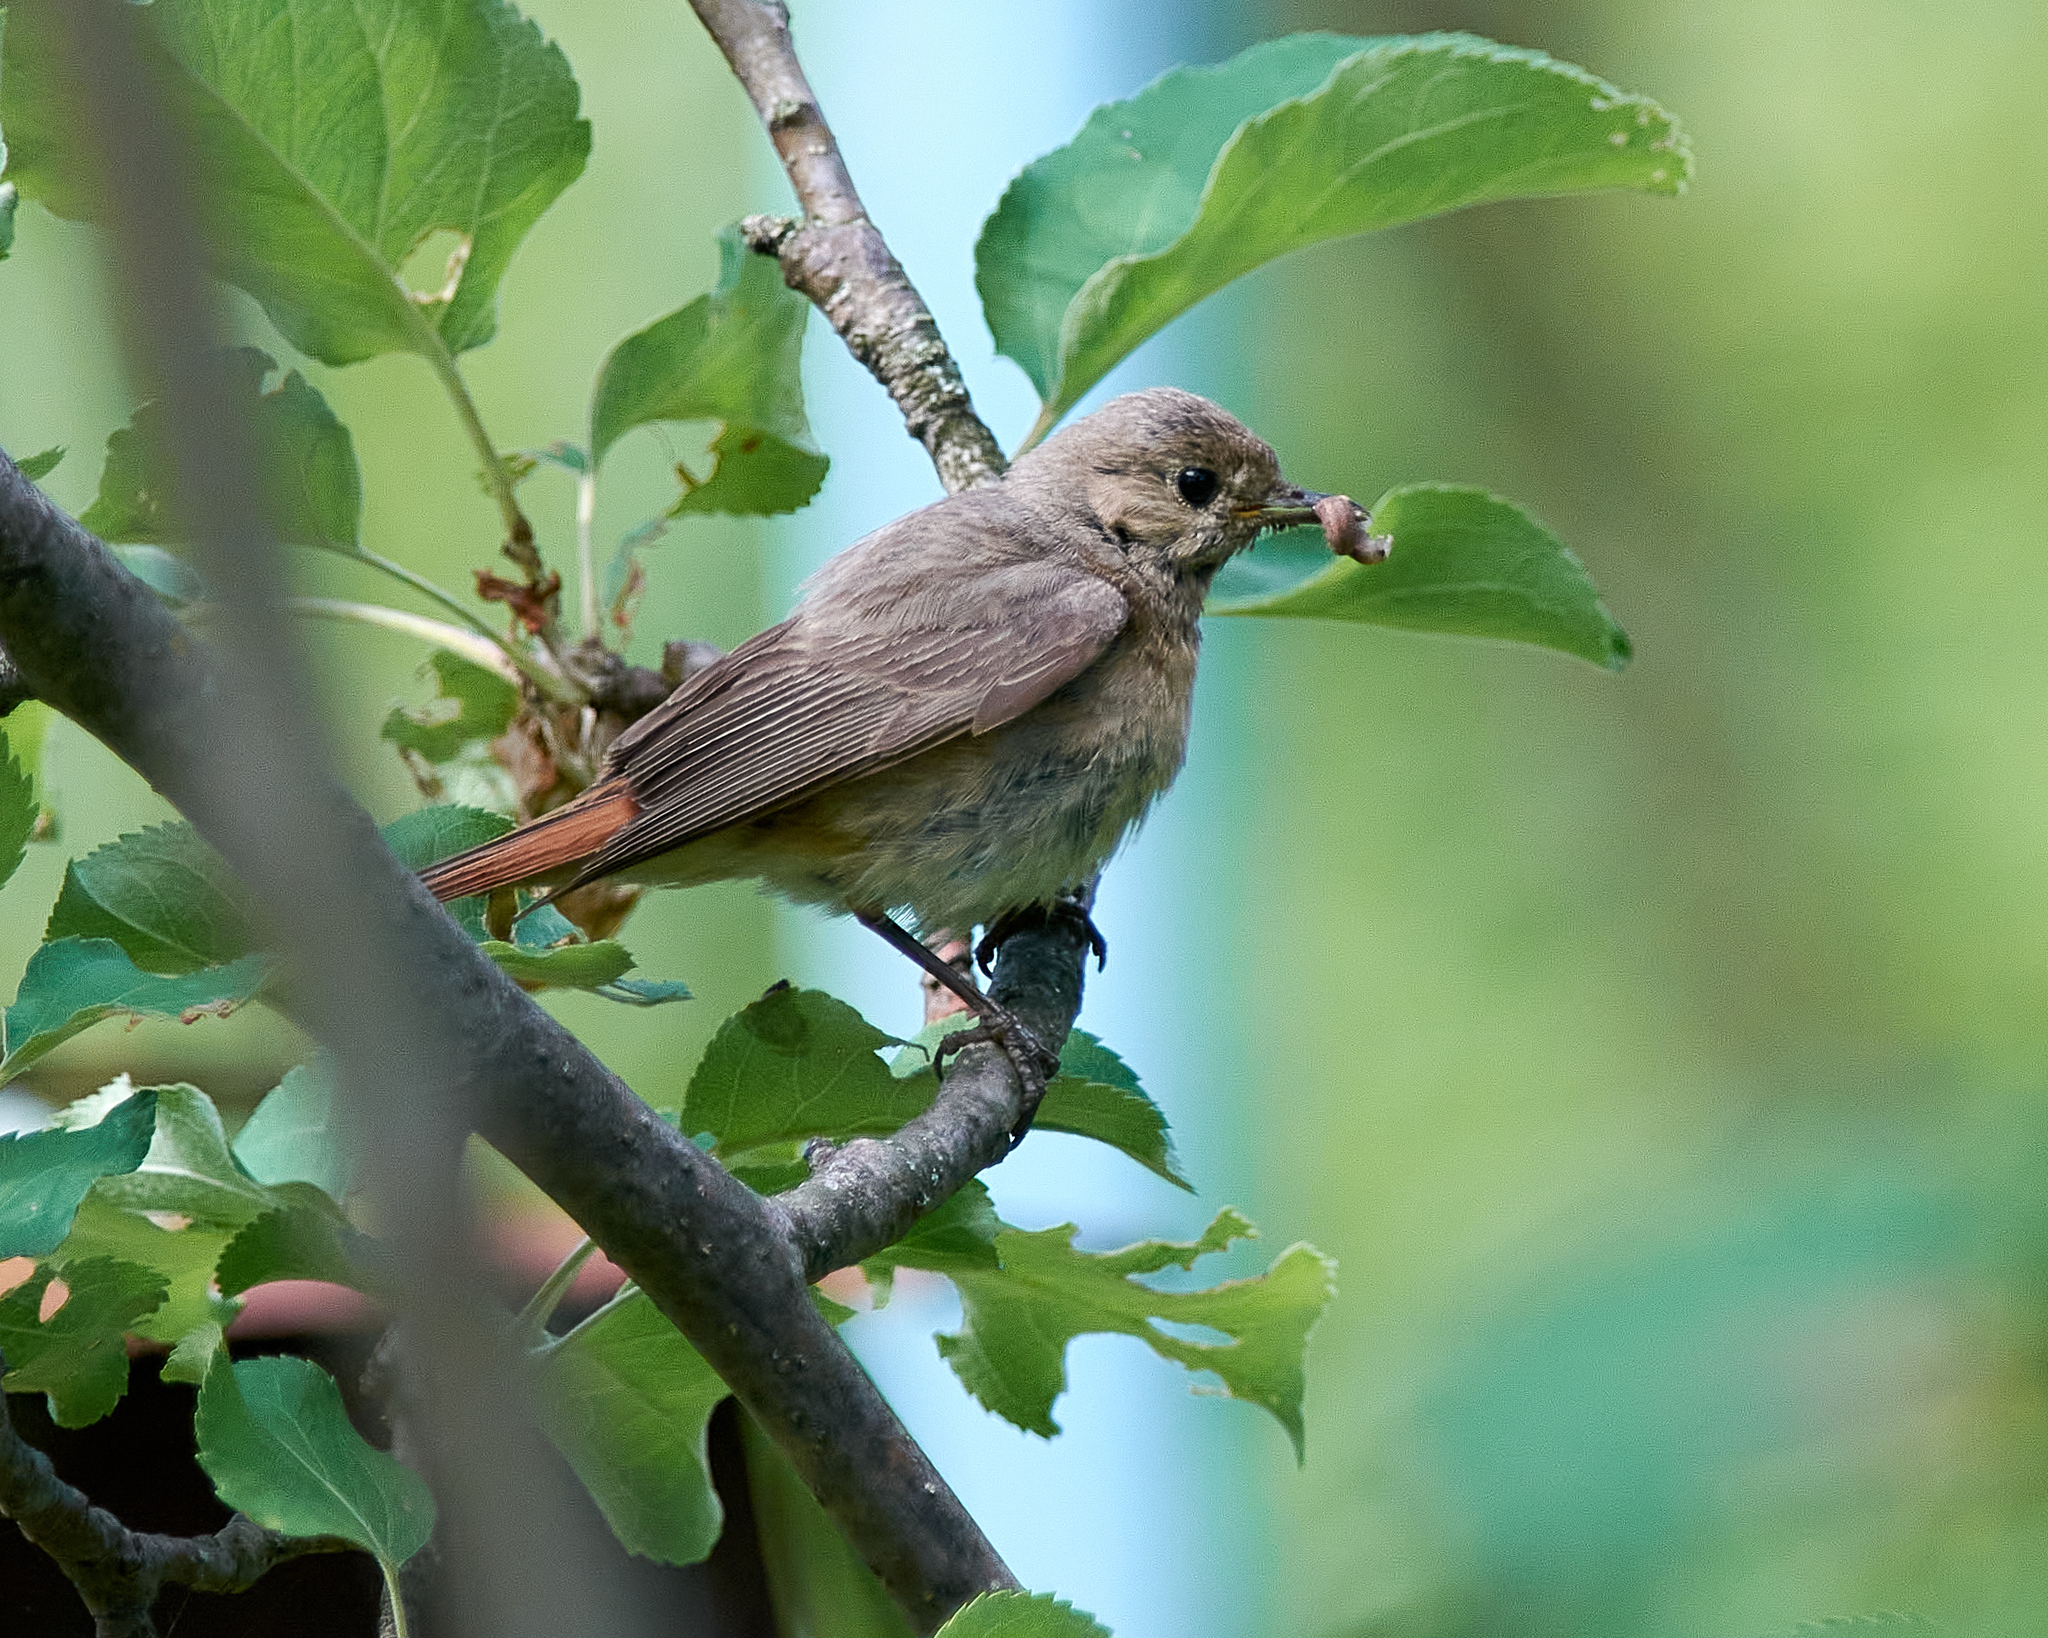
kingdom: Animalia
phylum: Chordata
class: Aves
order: Passeriformes
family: Muscicapidae
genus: Phoenicurus
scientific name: Phoenicurus phoenicurus
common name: Common redstart
